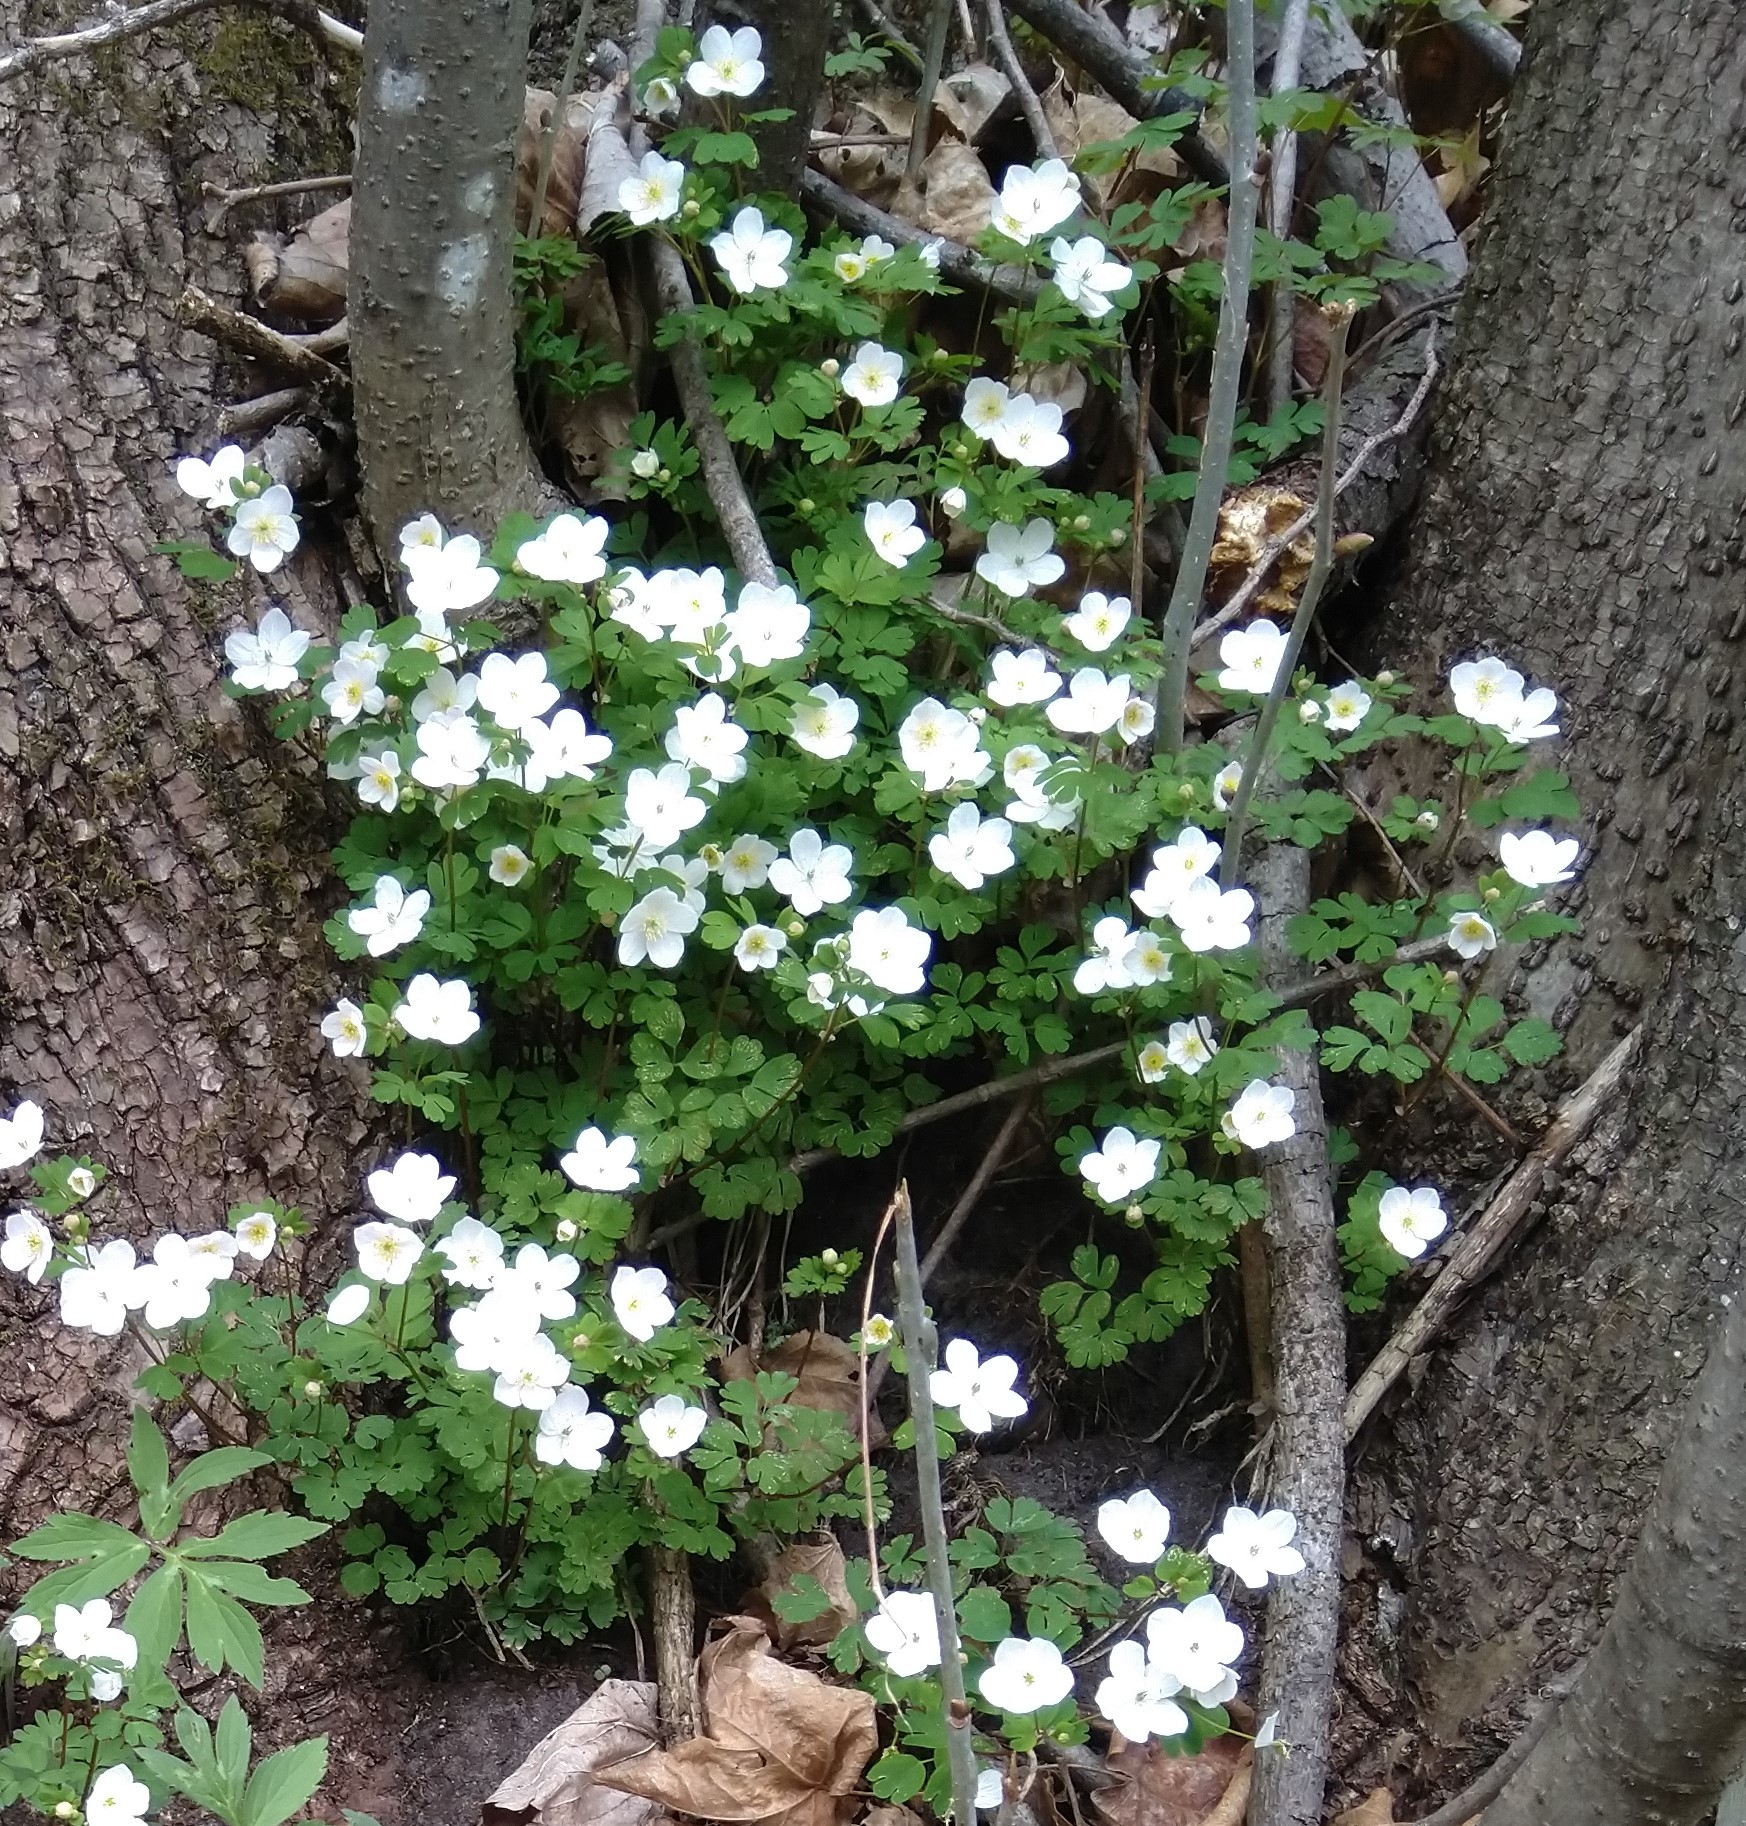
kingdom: Plantae
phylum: Tracheophyta
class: Magnoliopsida
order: Ranunculales
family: Ranunculaceae
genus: Enemion
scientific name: Enemion biternatum
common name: Eastern false rue-anemone
